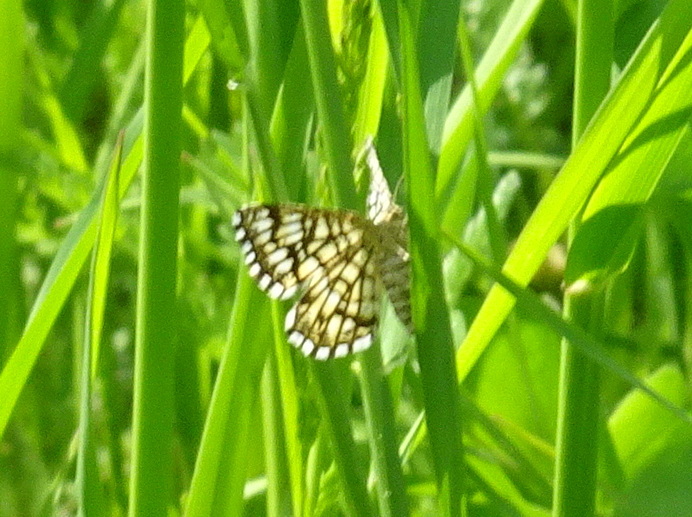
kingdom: Animalia
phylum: Arthropoda
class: Insecta
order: Lepidoptera
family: Geometridae
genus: Chiasmia
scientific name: Chiasmia clathrata
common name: Latticed heath
